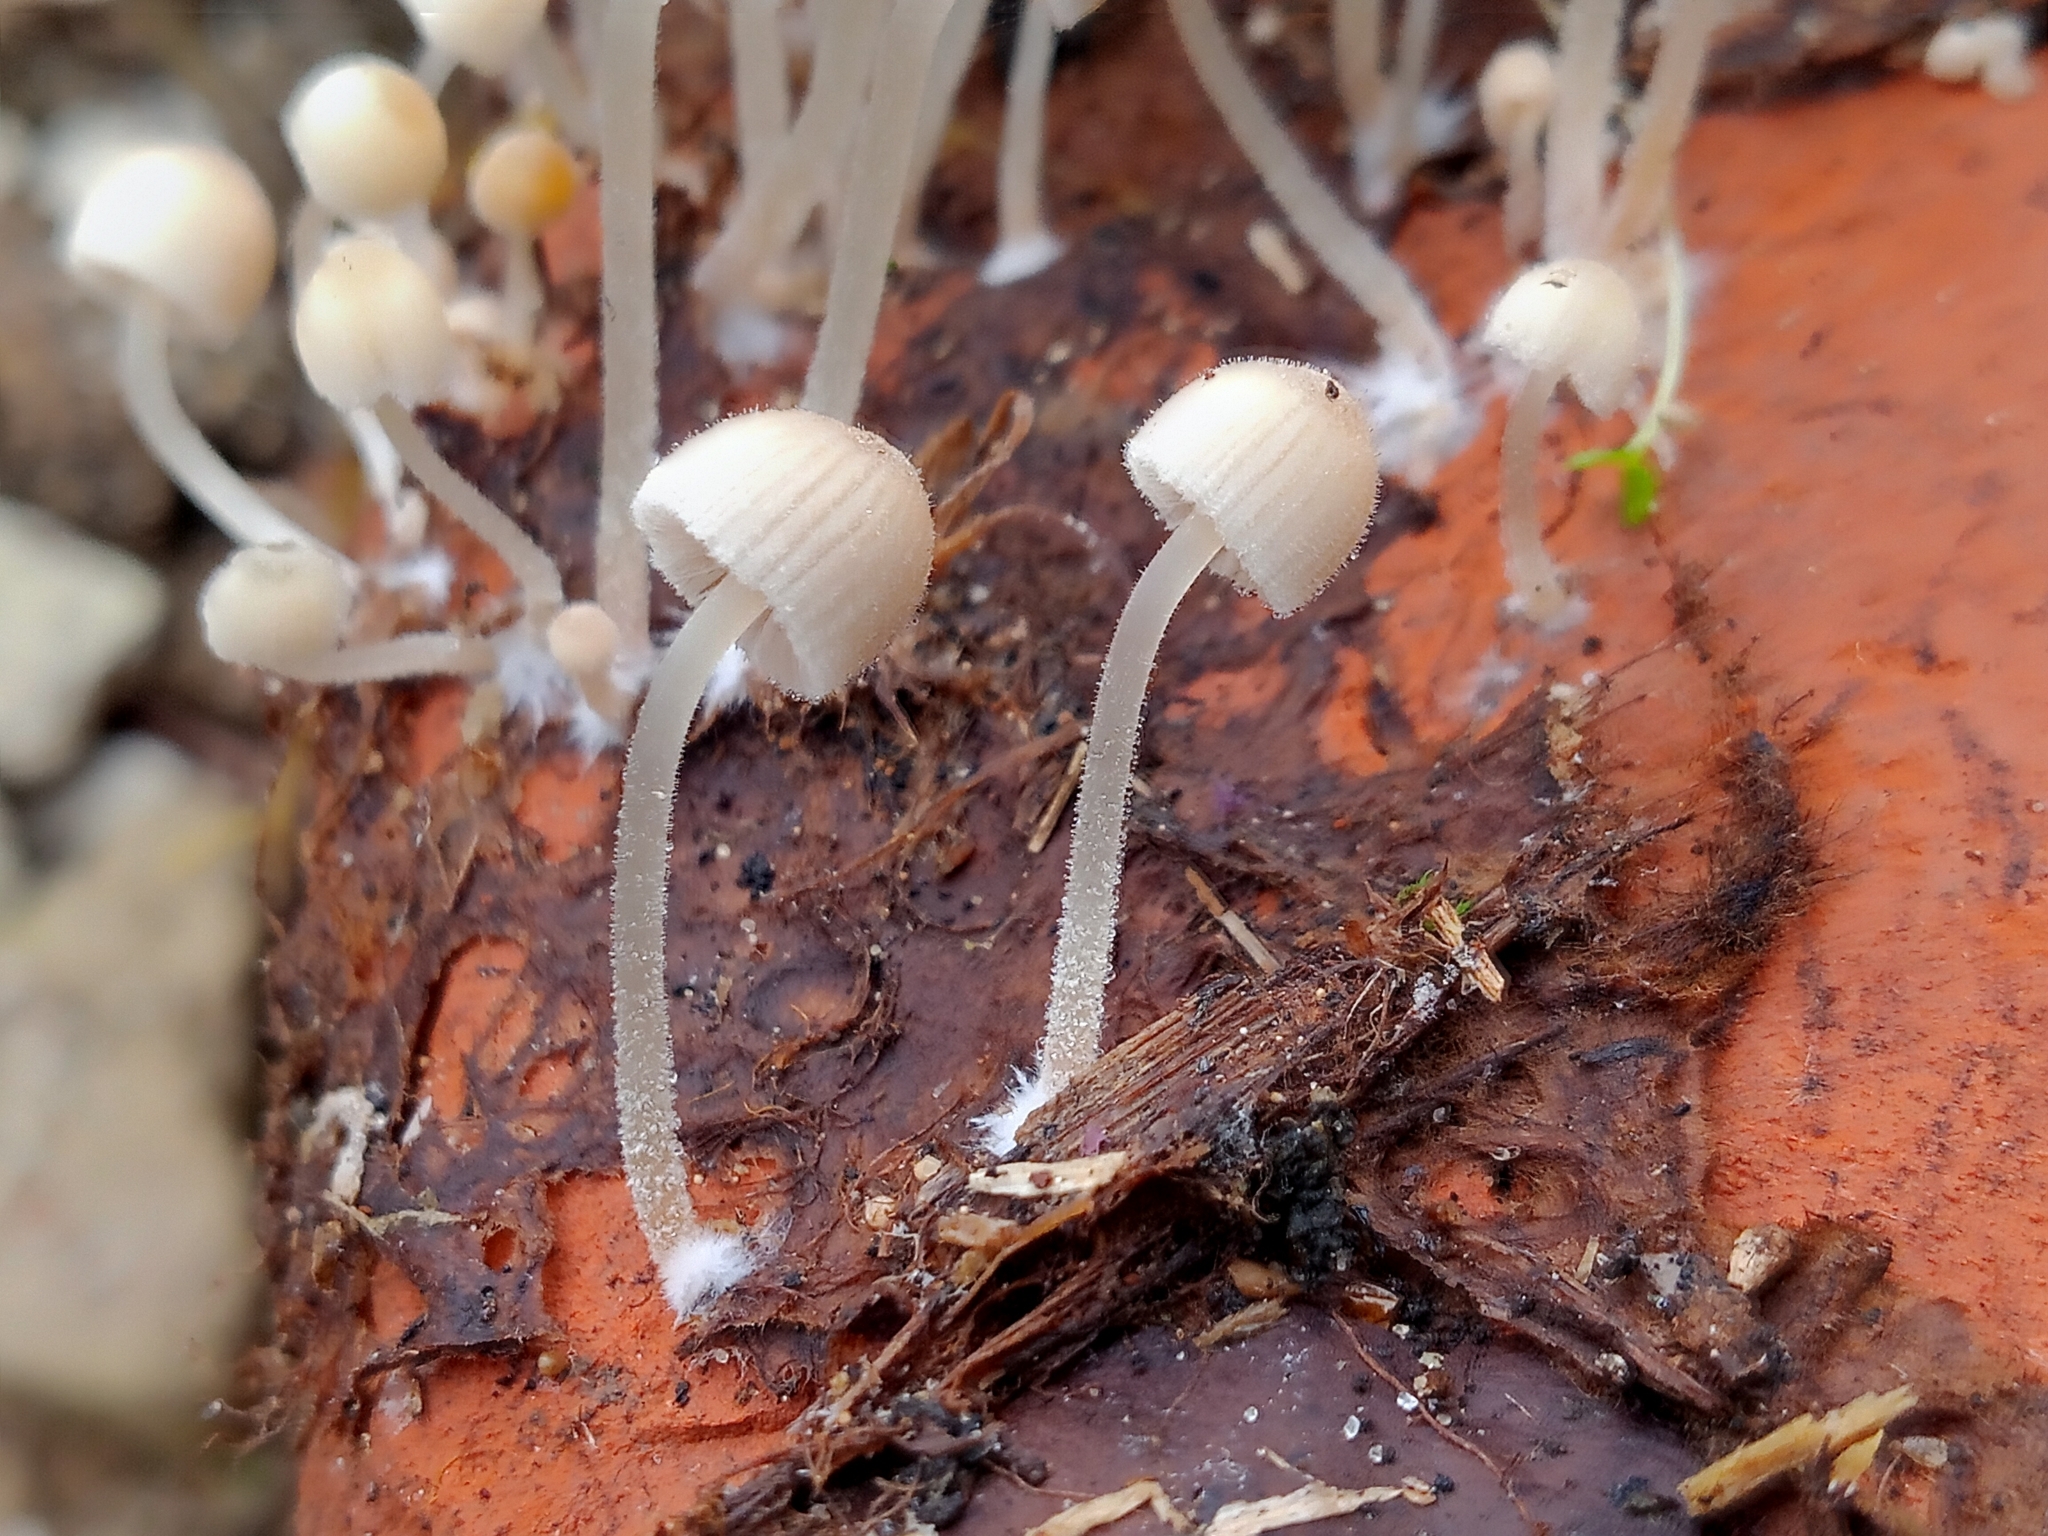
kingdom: Fungi
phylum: Basidiomycota
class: Agaricomycetes
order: Agaricales
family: Psathyrellaceae
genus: Coprinellus
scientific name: Coprinellus disseminatus
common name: Fairies' bonnets
